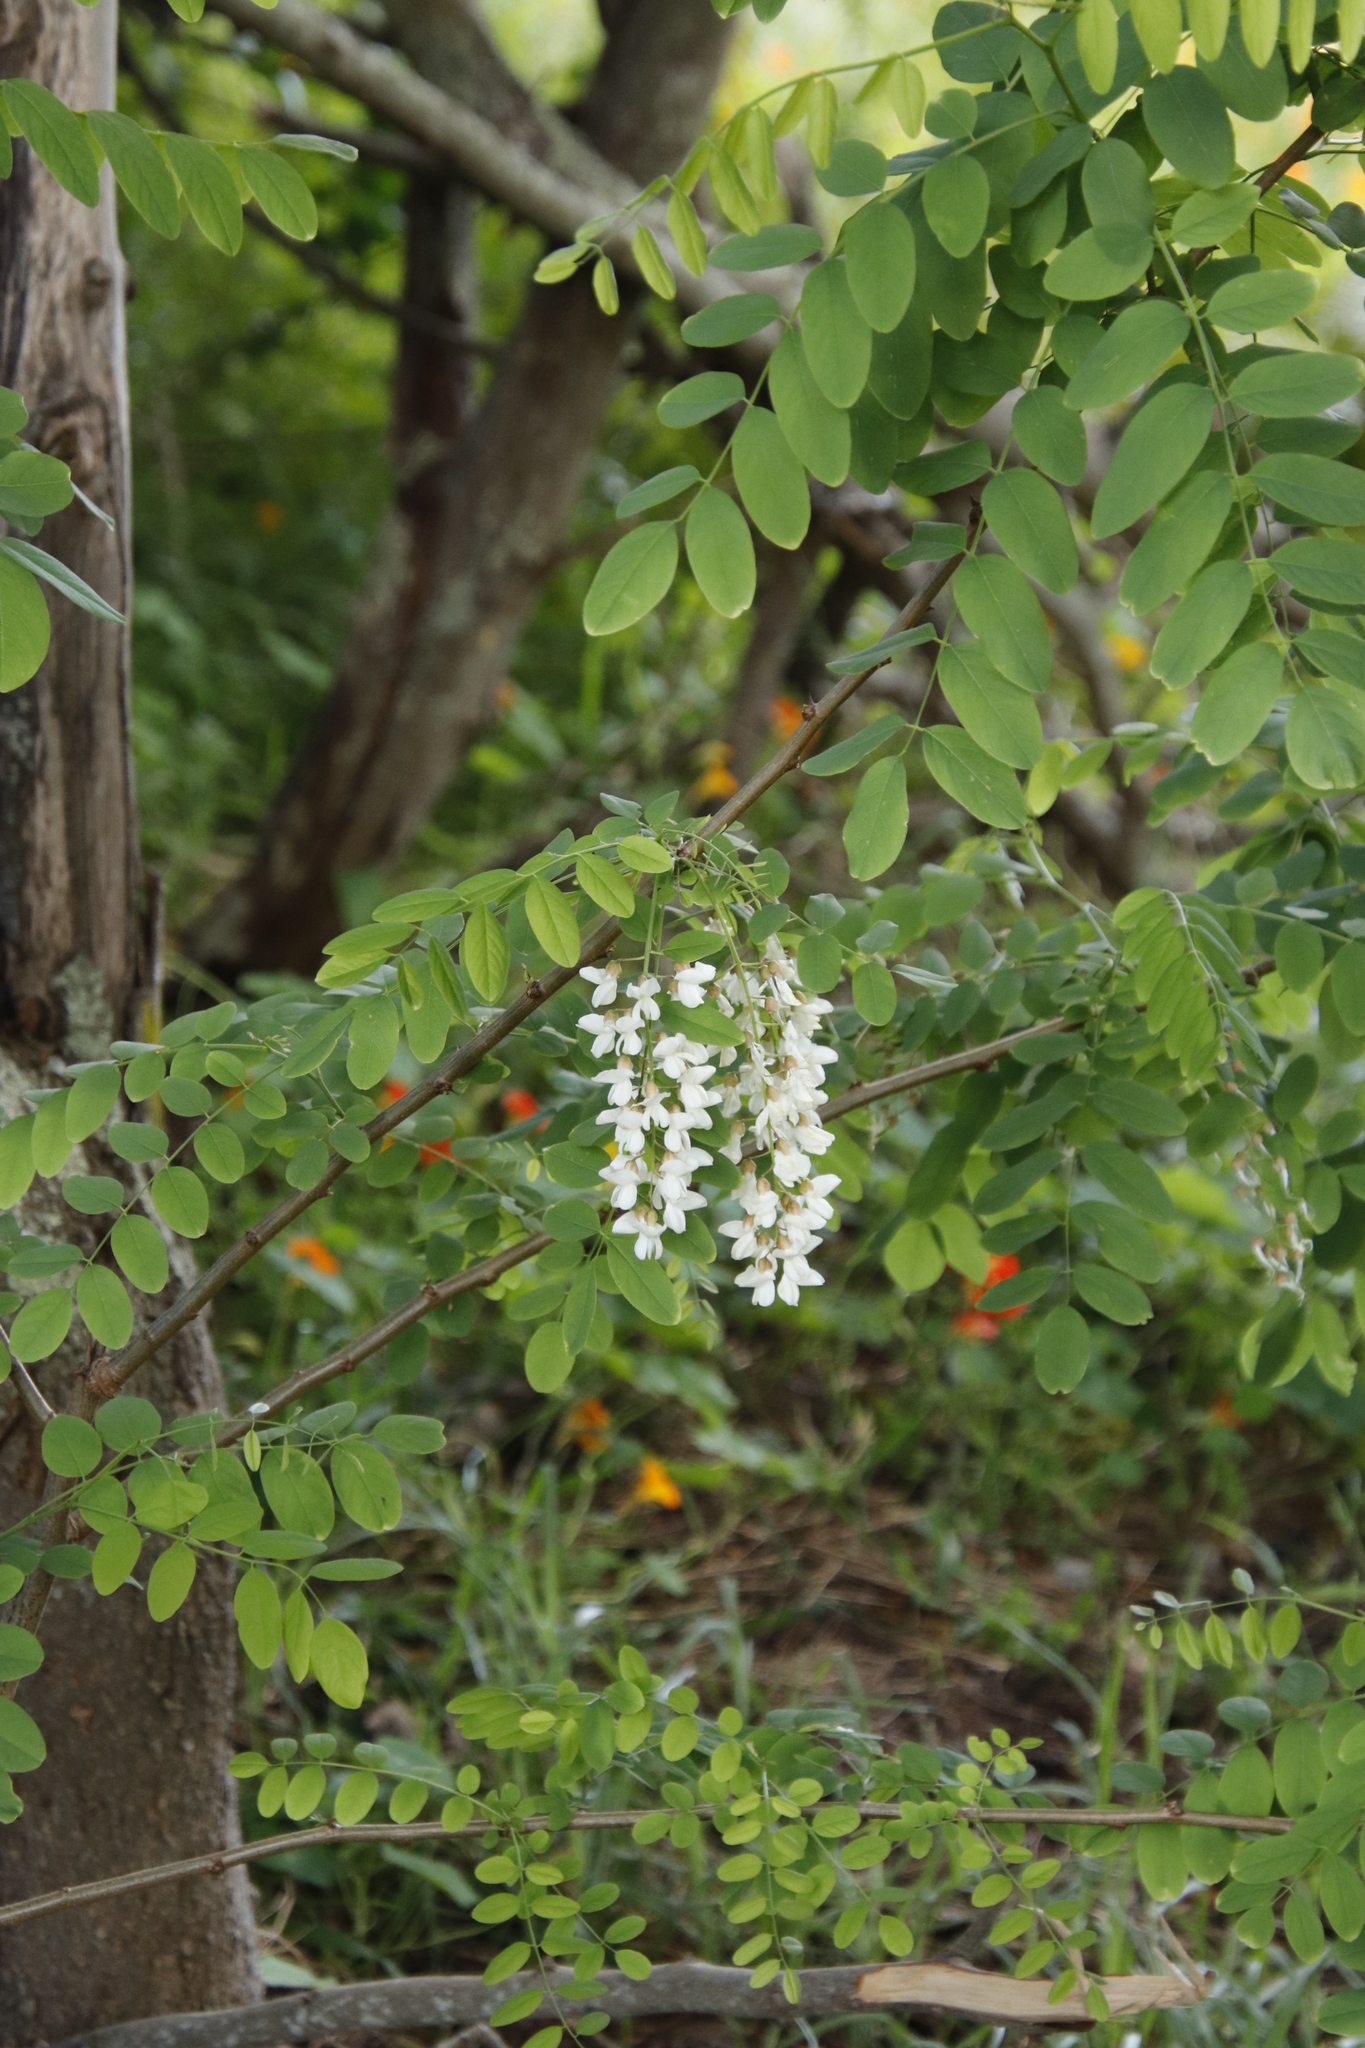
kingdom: Plantae
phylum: Tracheophyta
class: Magnoliopsida
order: Fabales
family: Fabaceae
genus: Robinia
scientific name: Robinia pseudoacacia
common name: Black locust
